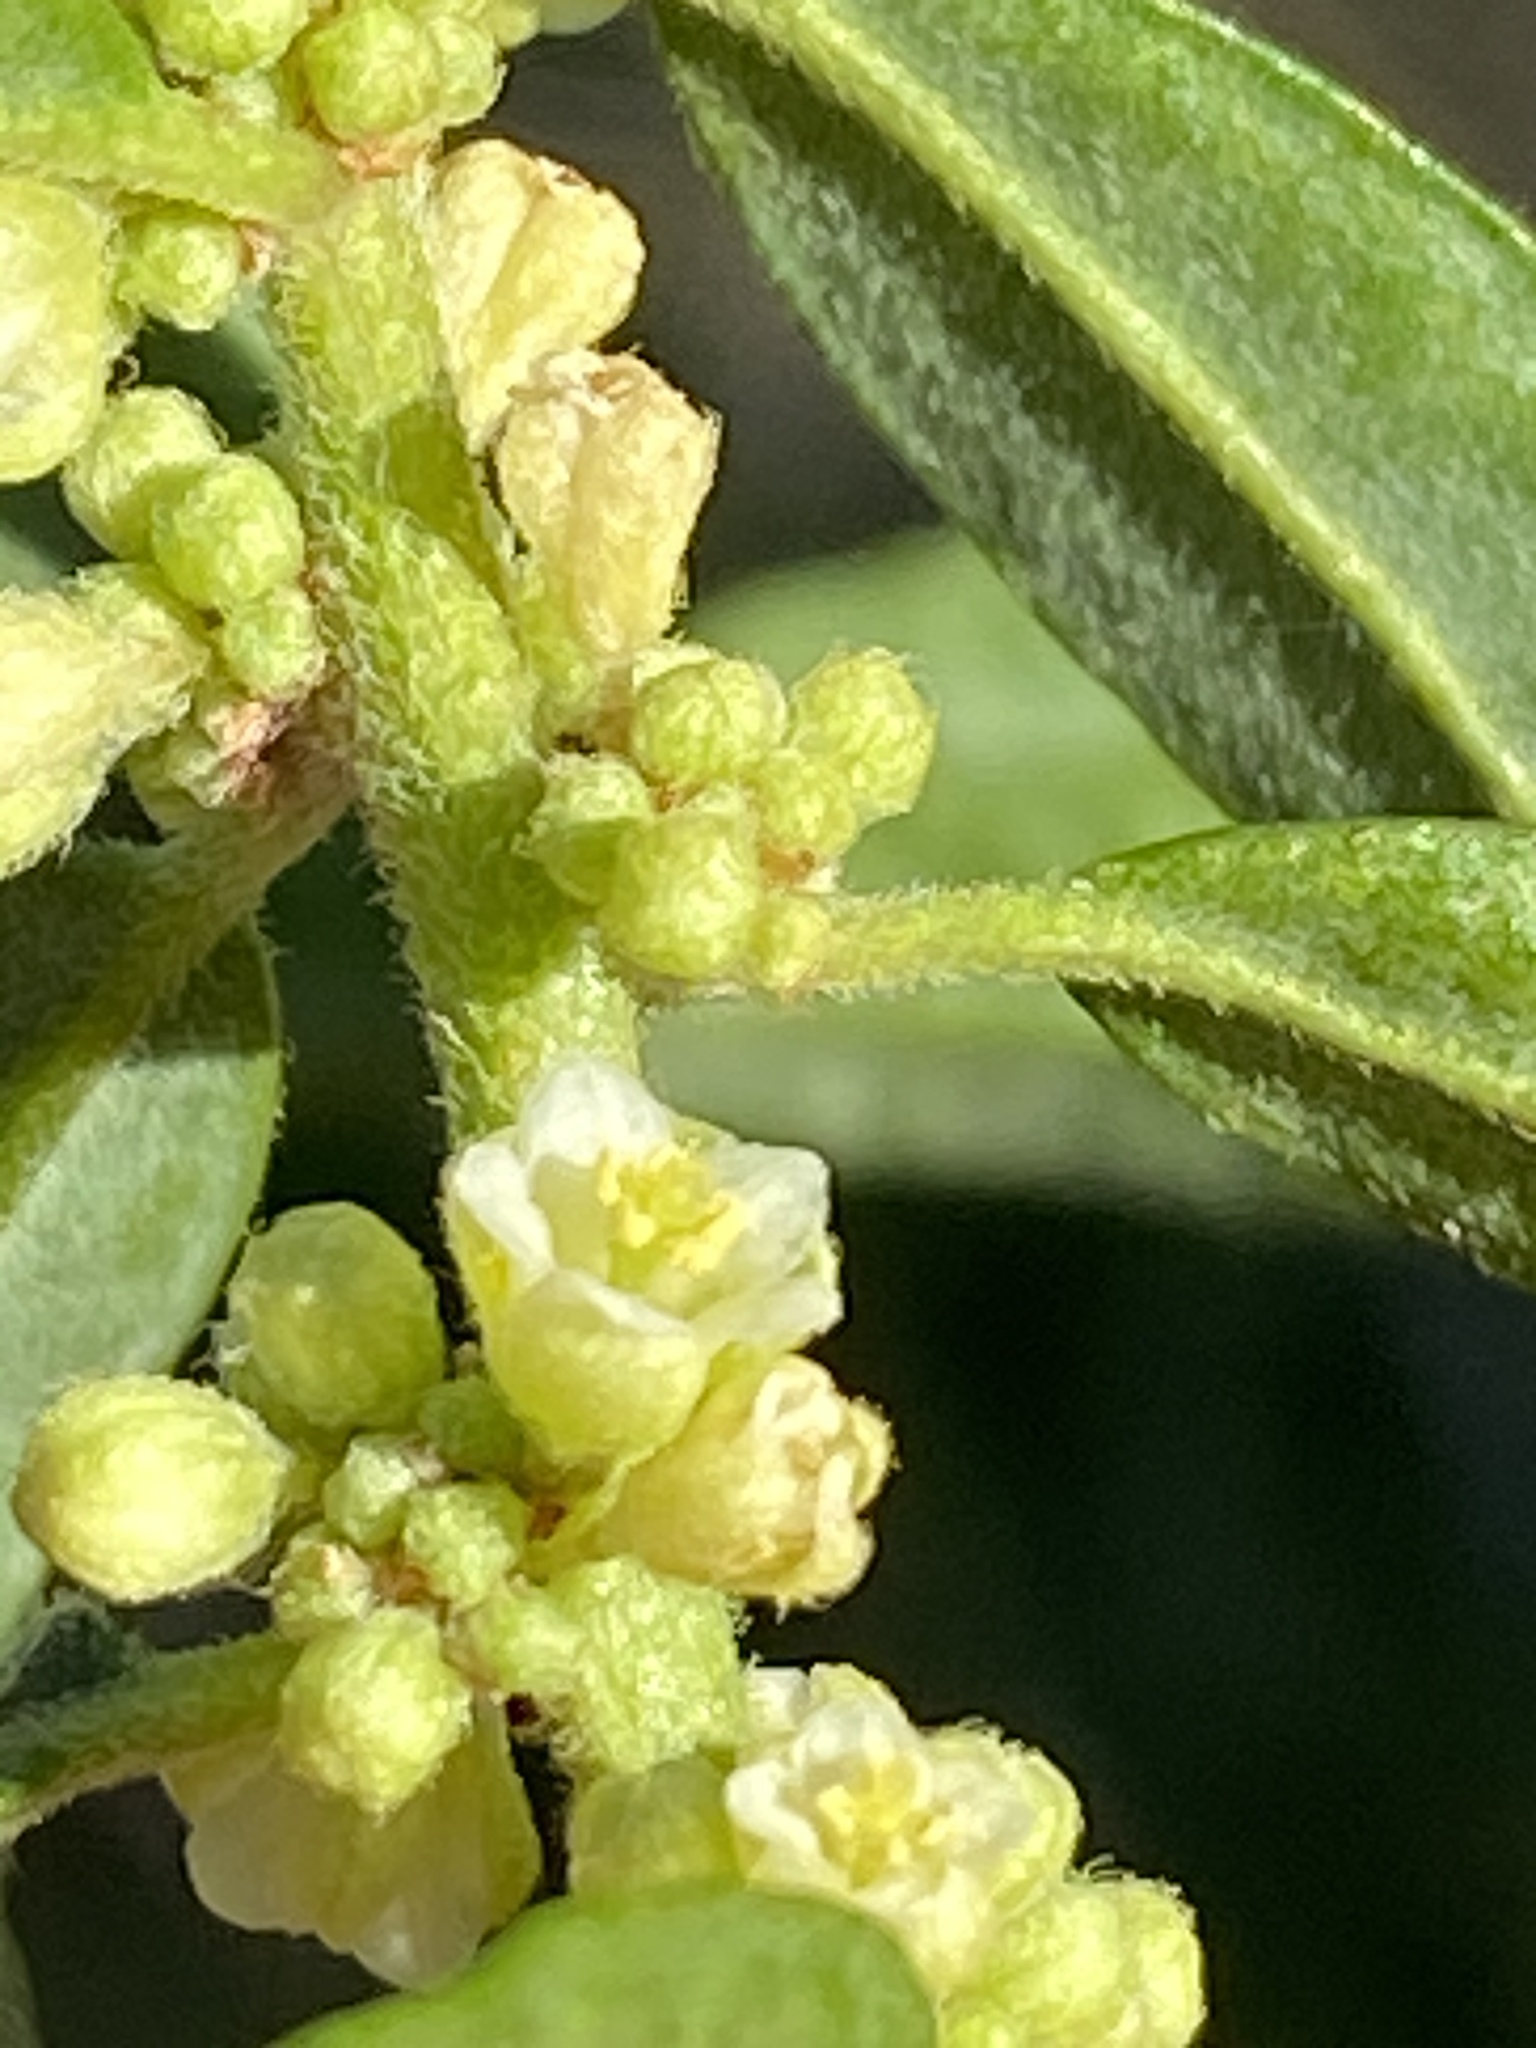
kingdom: Plantae
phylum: Tracheophyta
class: Magnoliopsida
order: Malpighiales
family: Peraceae
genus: Clutia
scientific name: Clutia affinis
